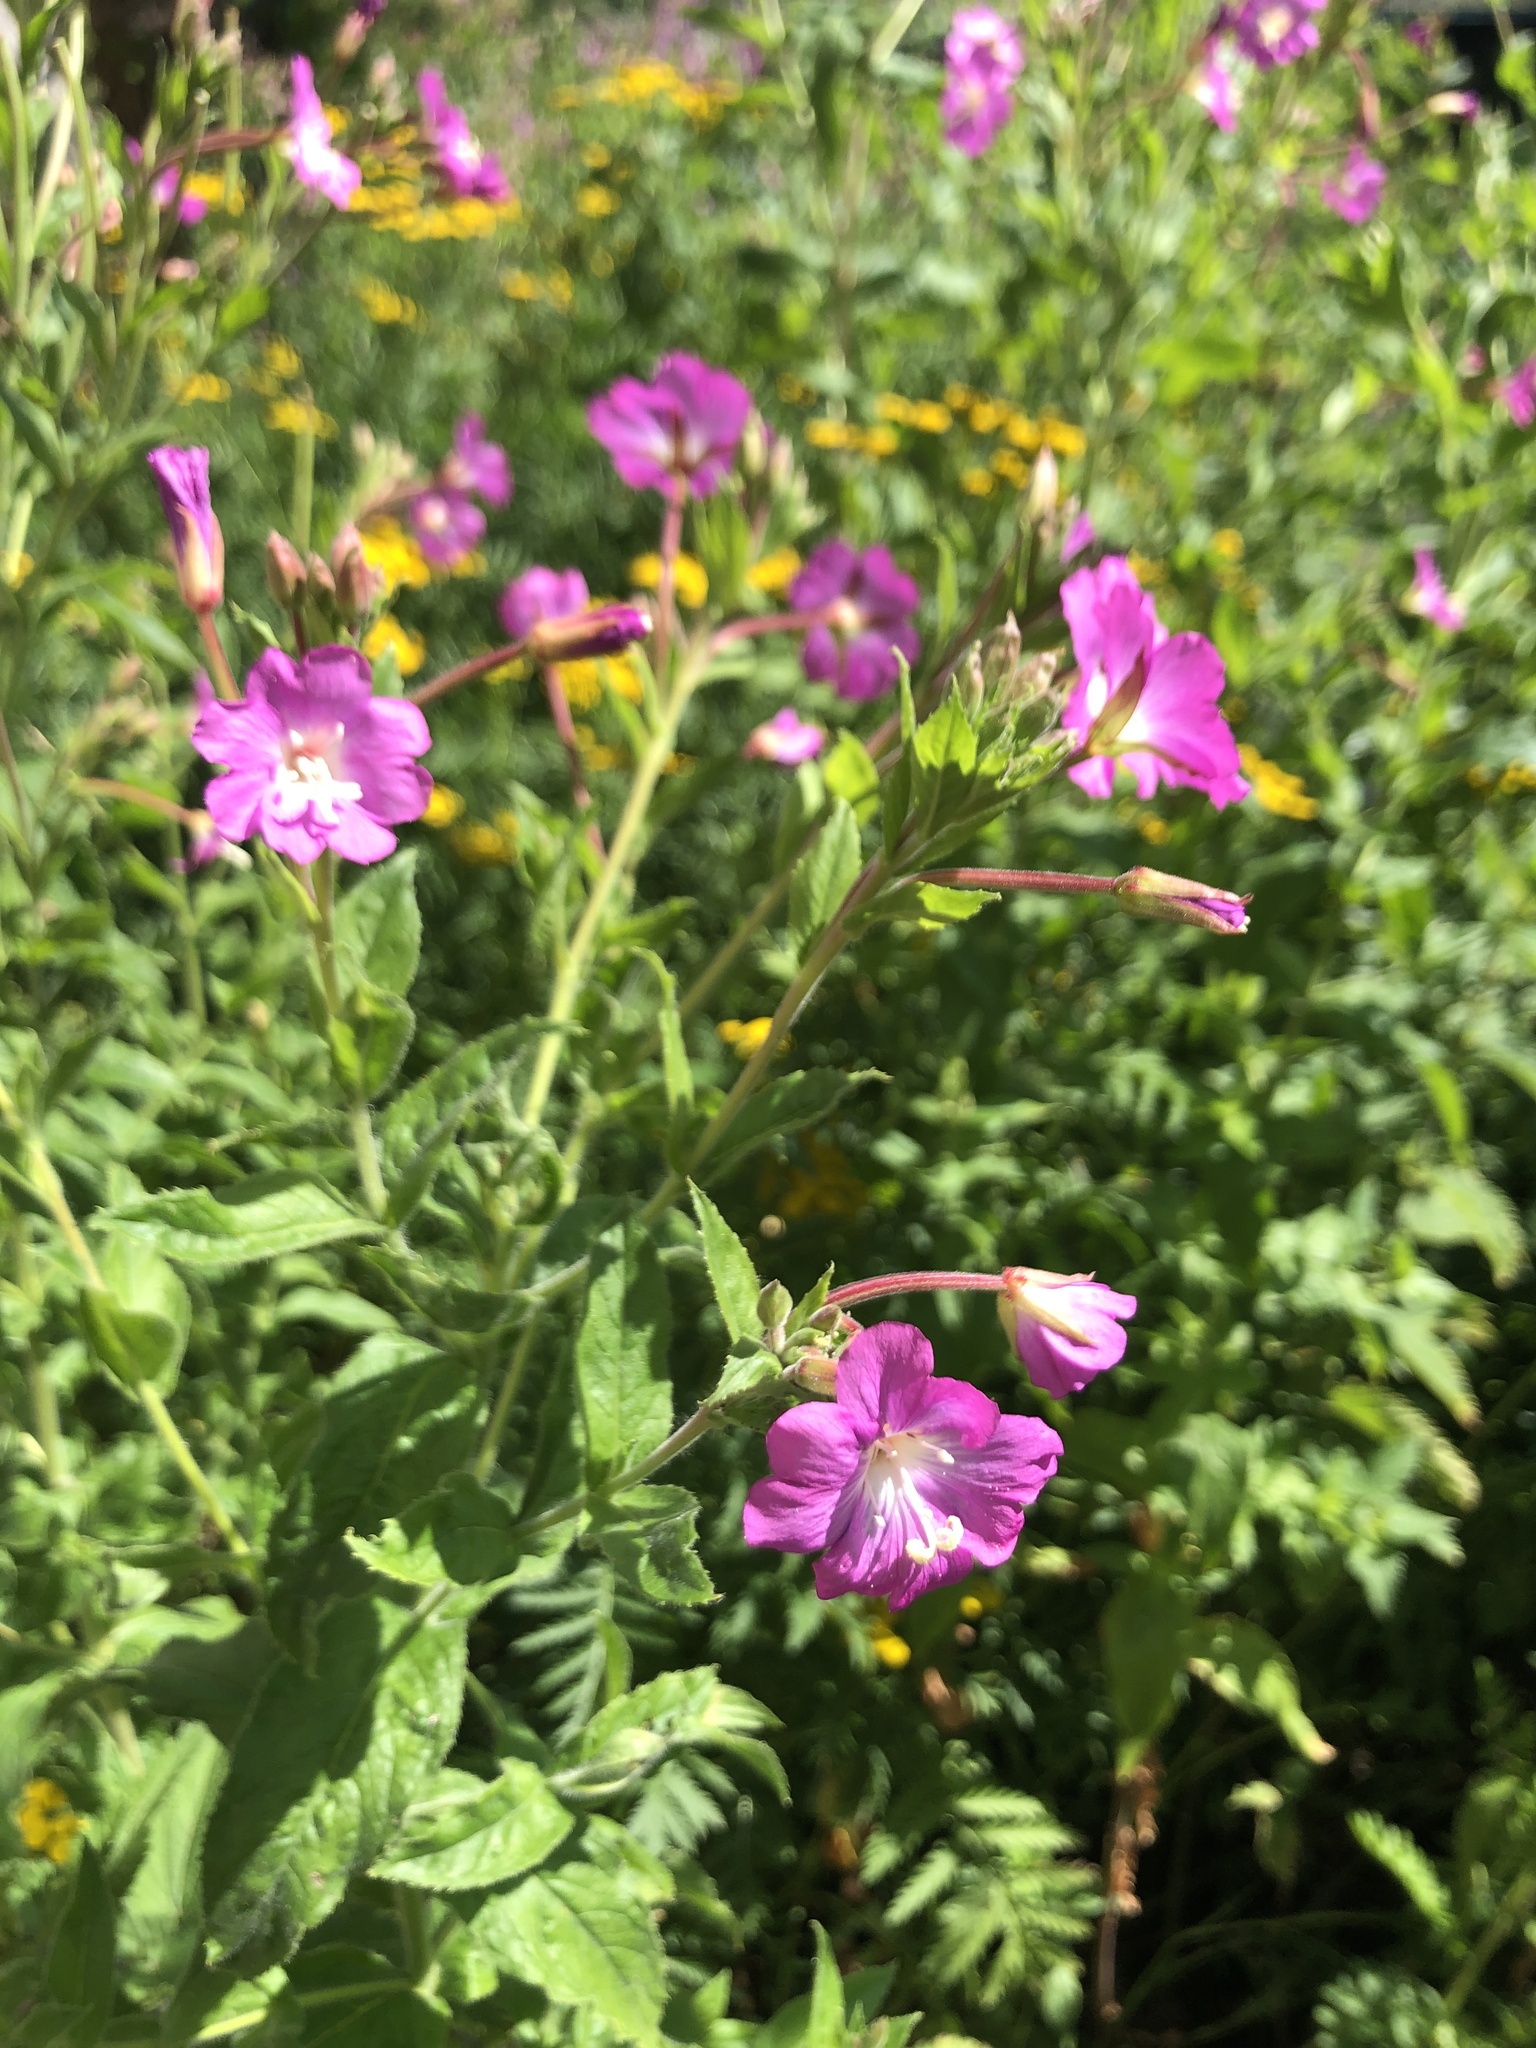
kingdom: Plantae
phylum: Tracheophyta
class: Magnoliopsida
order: Myrtales
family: Onagraceae
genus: Epilobium
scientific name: Epilobium hirsutum
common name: Great willowherb
